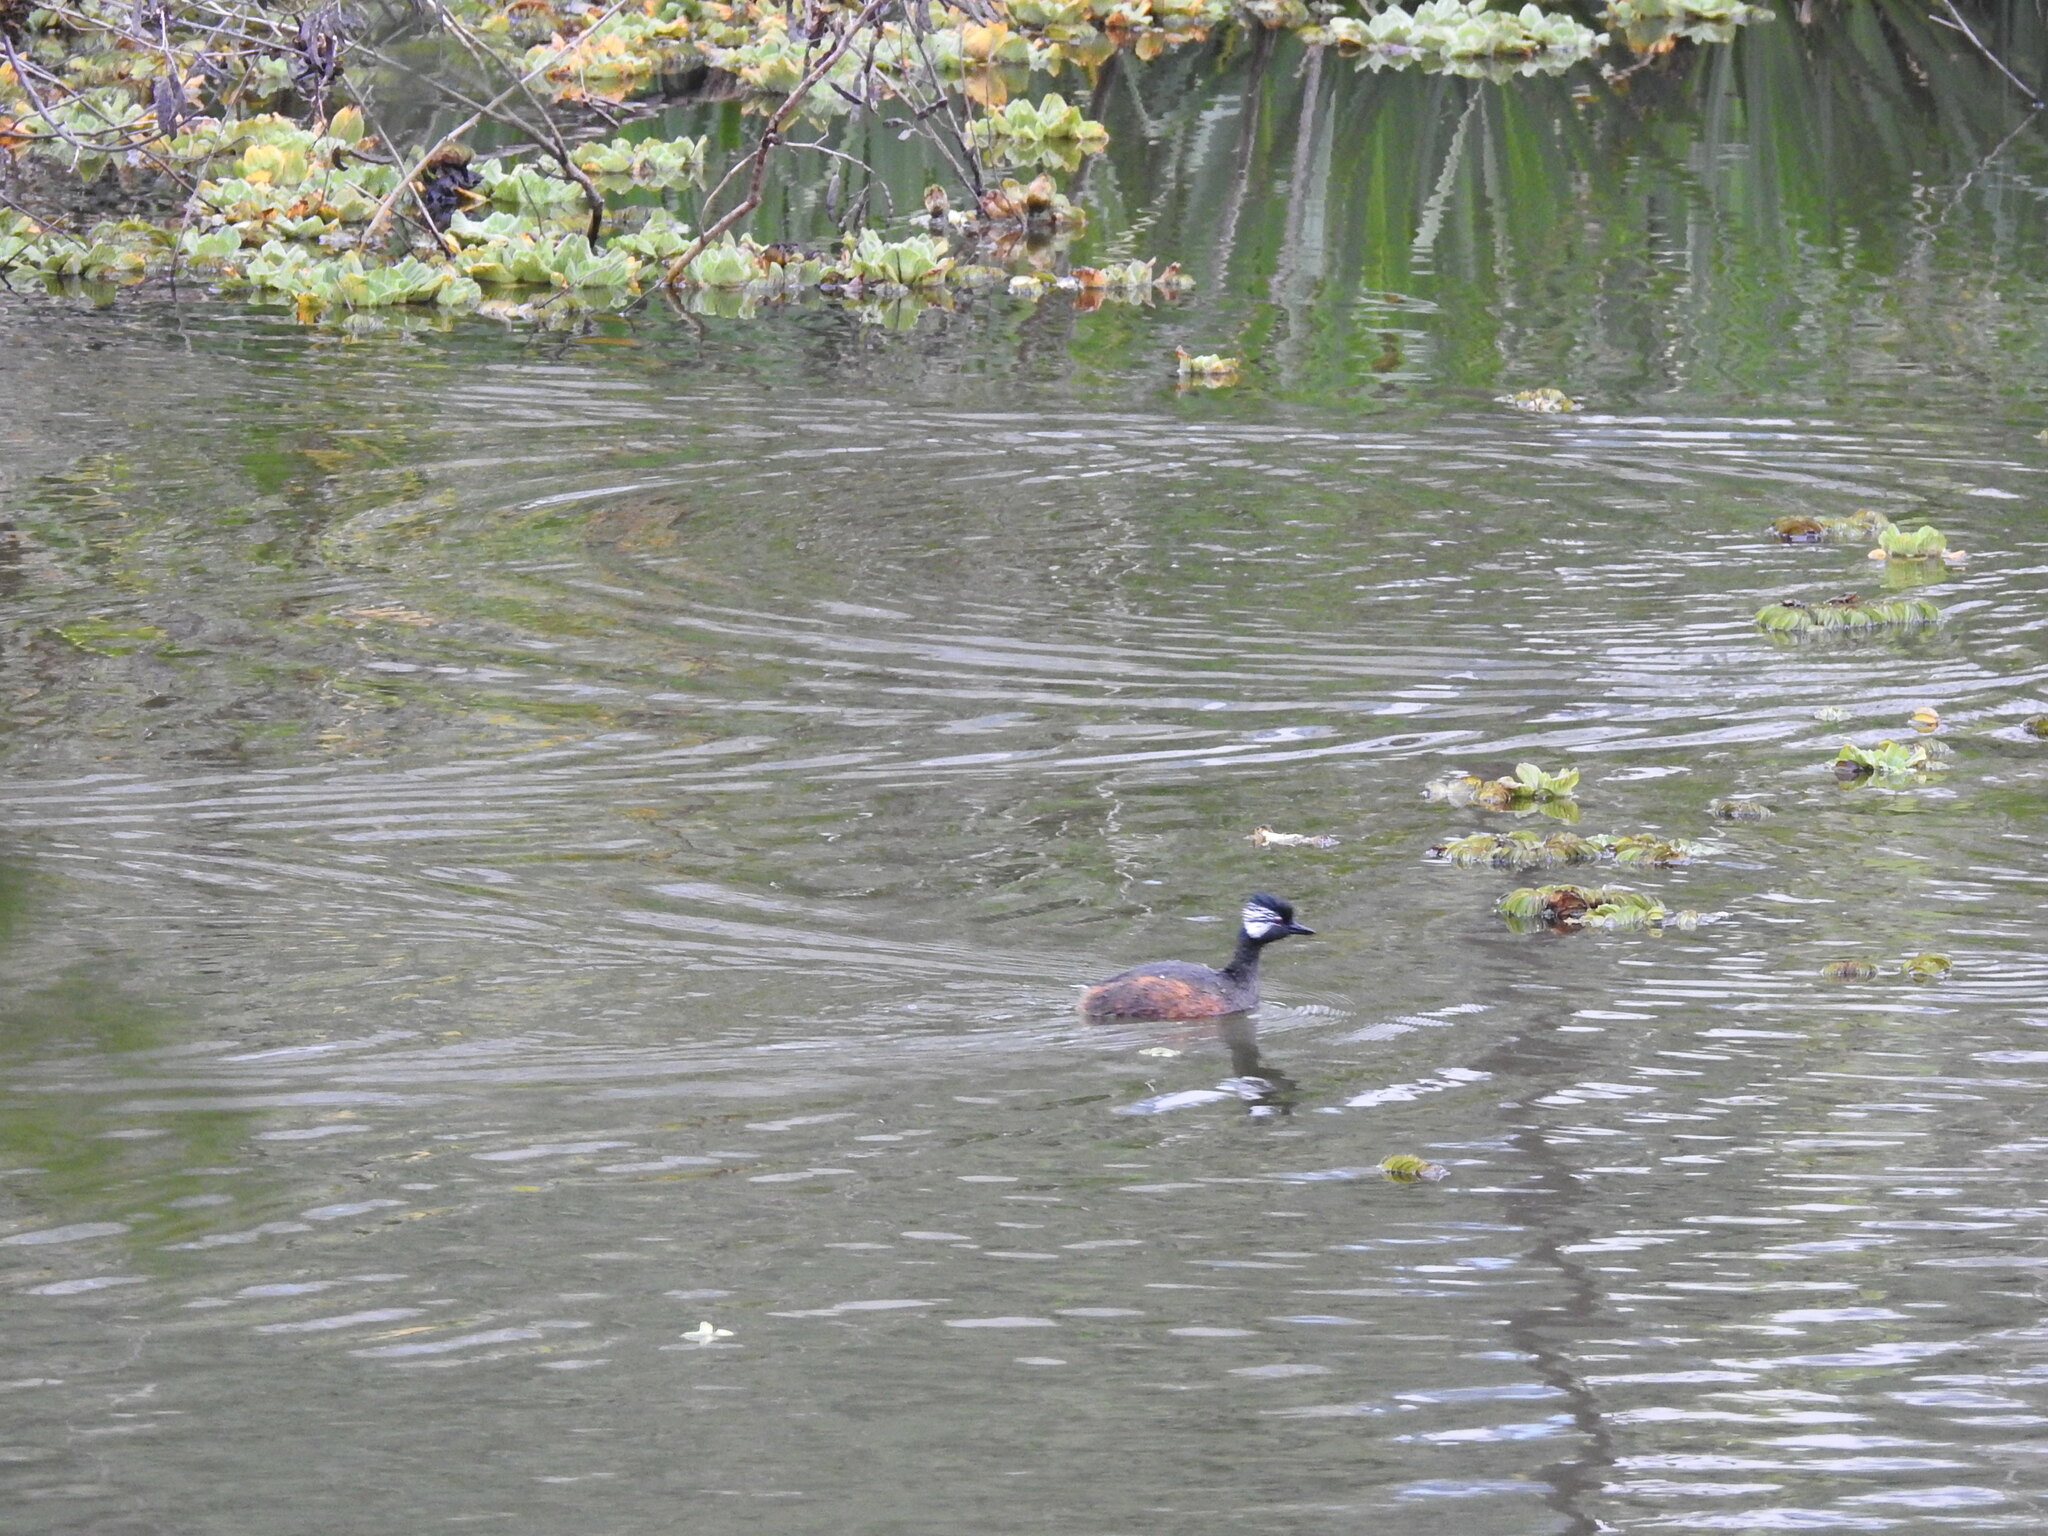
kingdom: Animalia
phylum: Chordata
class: Aves
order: Podicipediformes
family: Podicipedidae
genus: Rollandia
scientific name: Rollandia rolland
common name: White-tufted grebe
